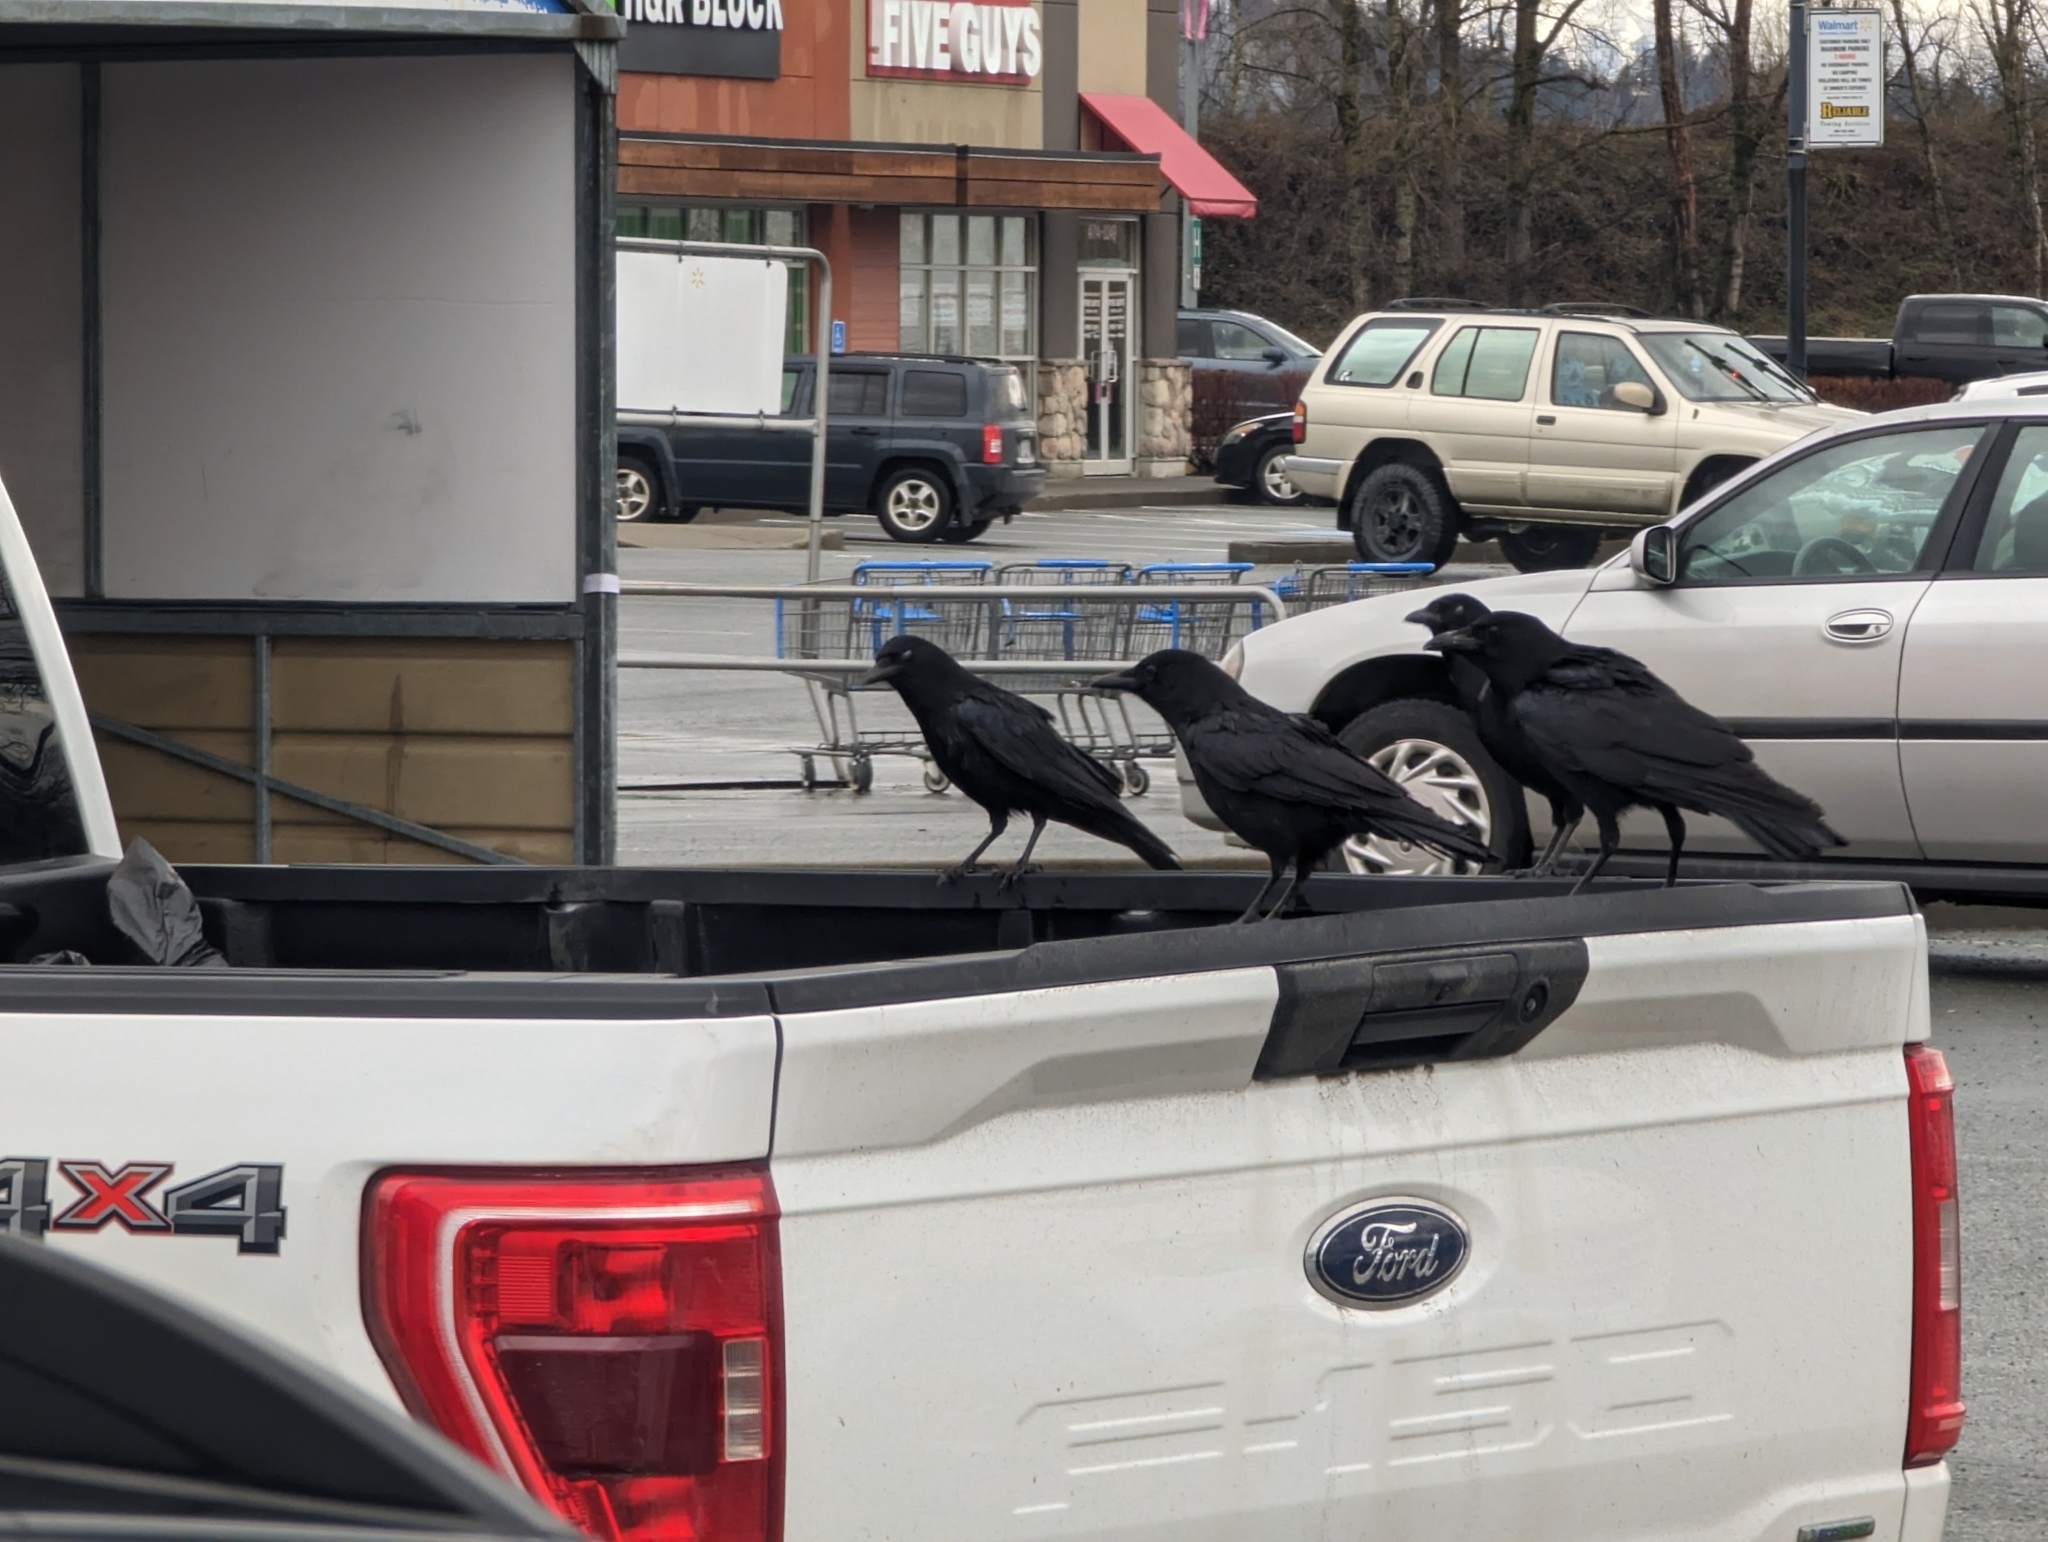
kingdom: Animalia
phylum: Chordata
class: Aves
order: Passeriformes
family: Corvidae
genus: Corvus
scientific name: Corvus brachyrhynchos
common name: American crow
